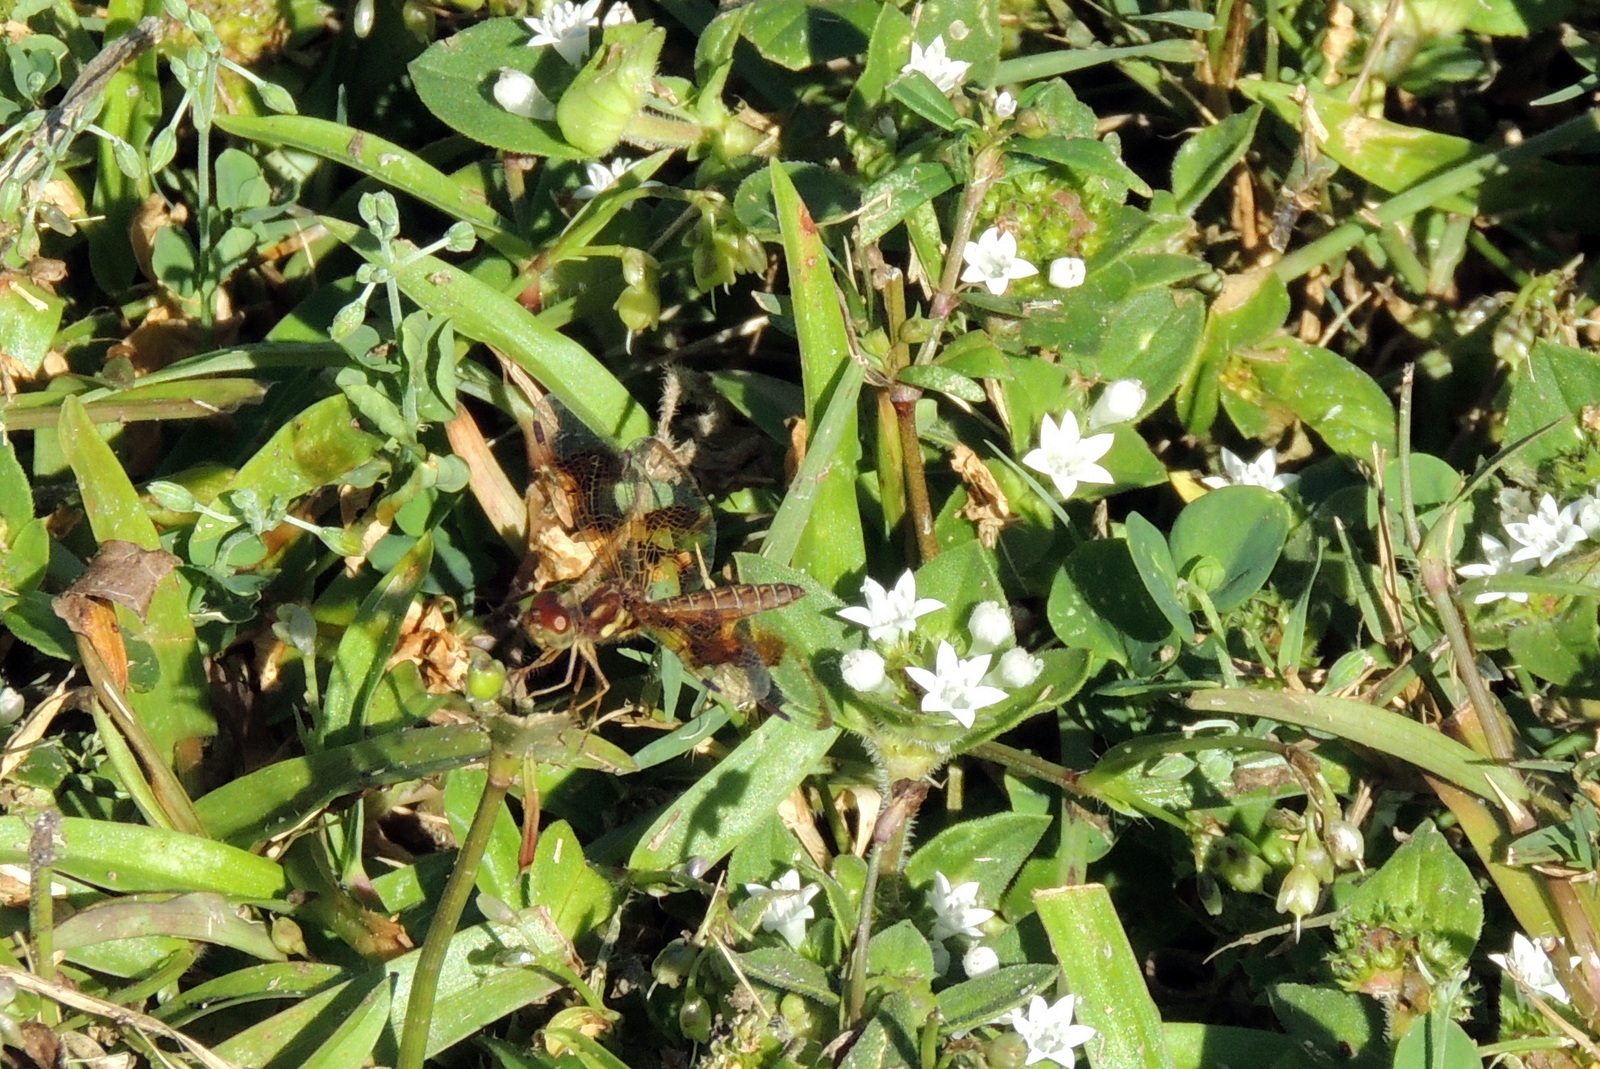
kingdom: Animalia
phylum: Arthropoda
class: Insecta
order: Odonata
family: Libellulidae
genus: Perithemis
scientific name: Perithemis tenera
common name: Eastern amberwing
